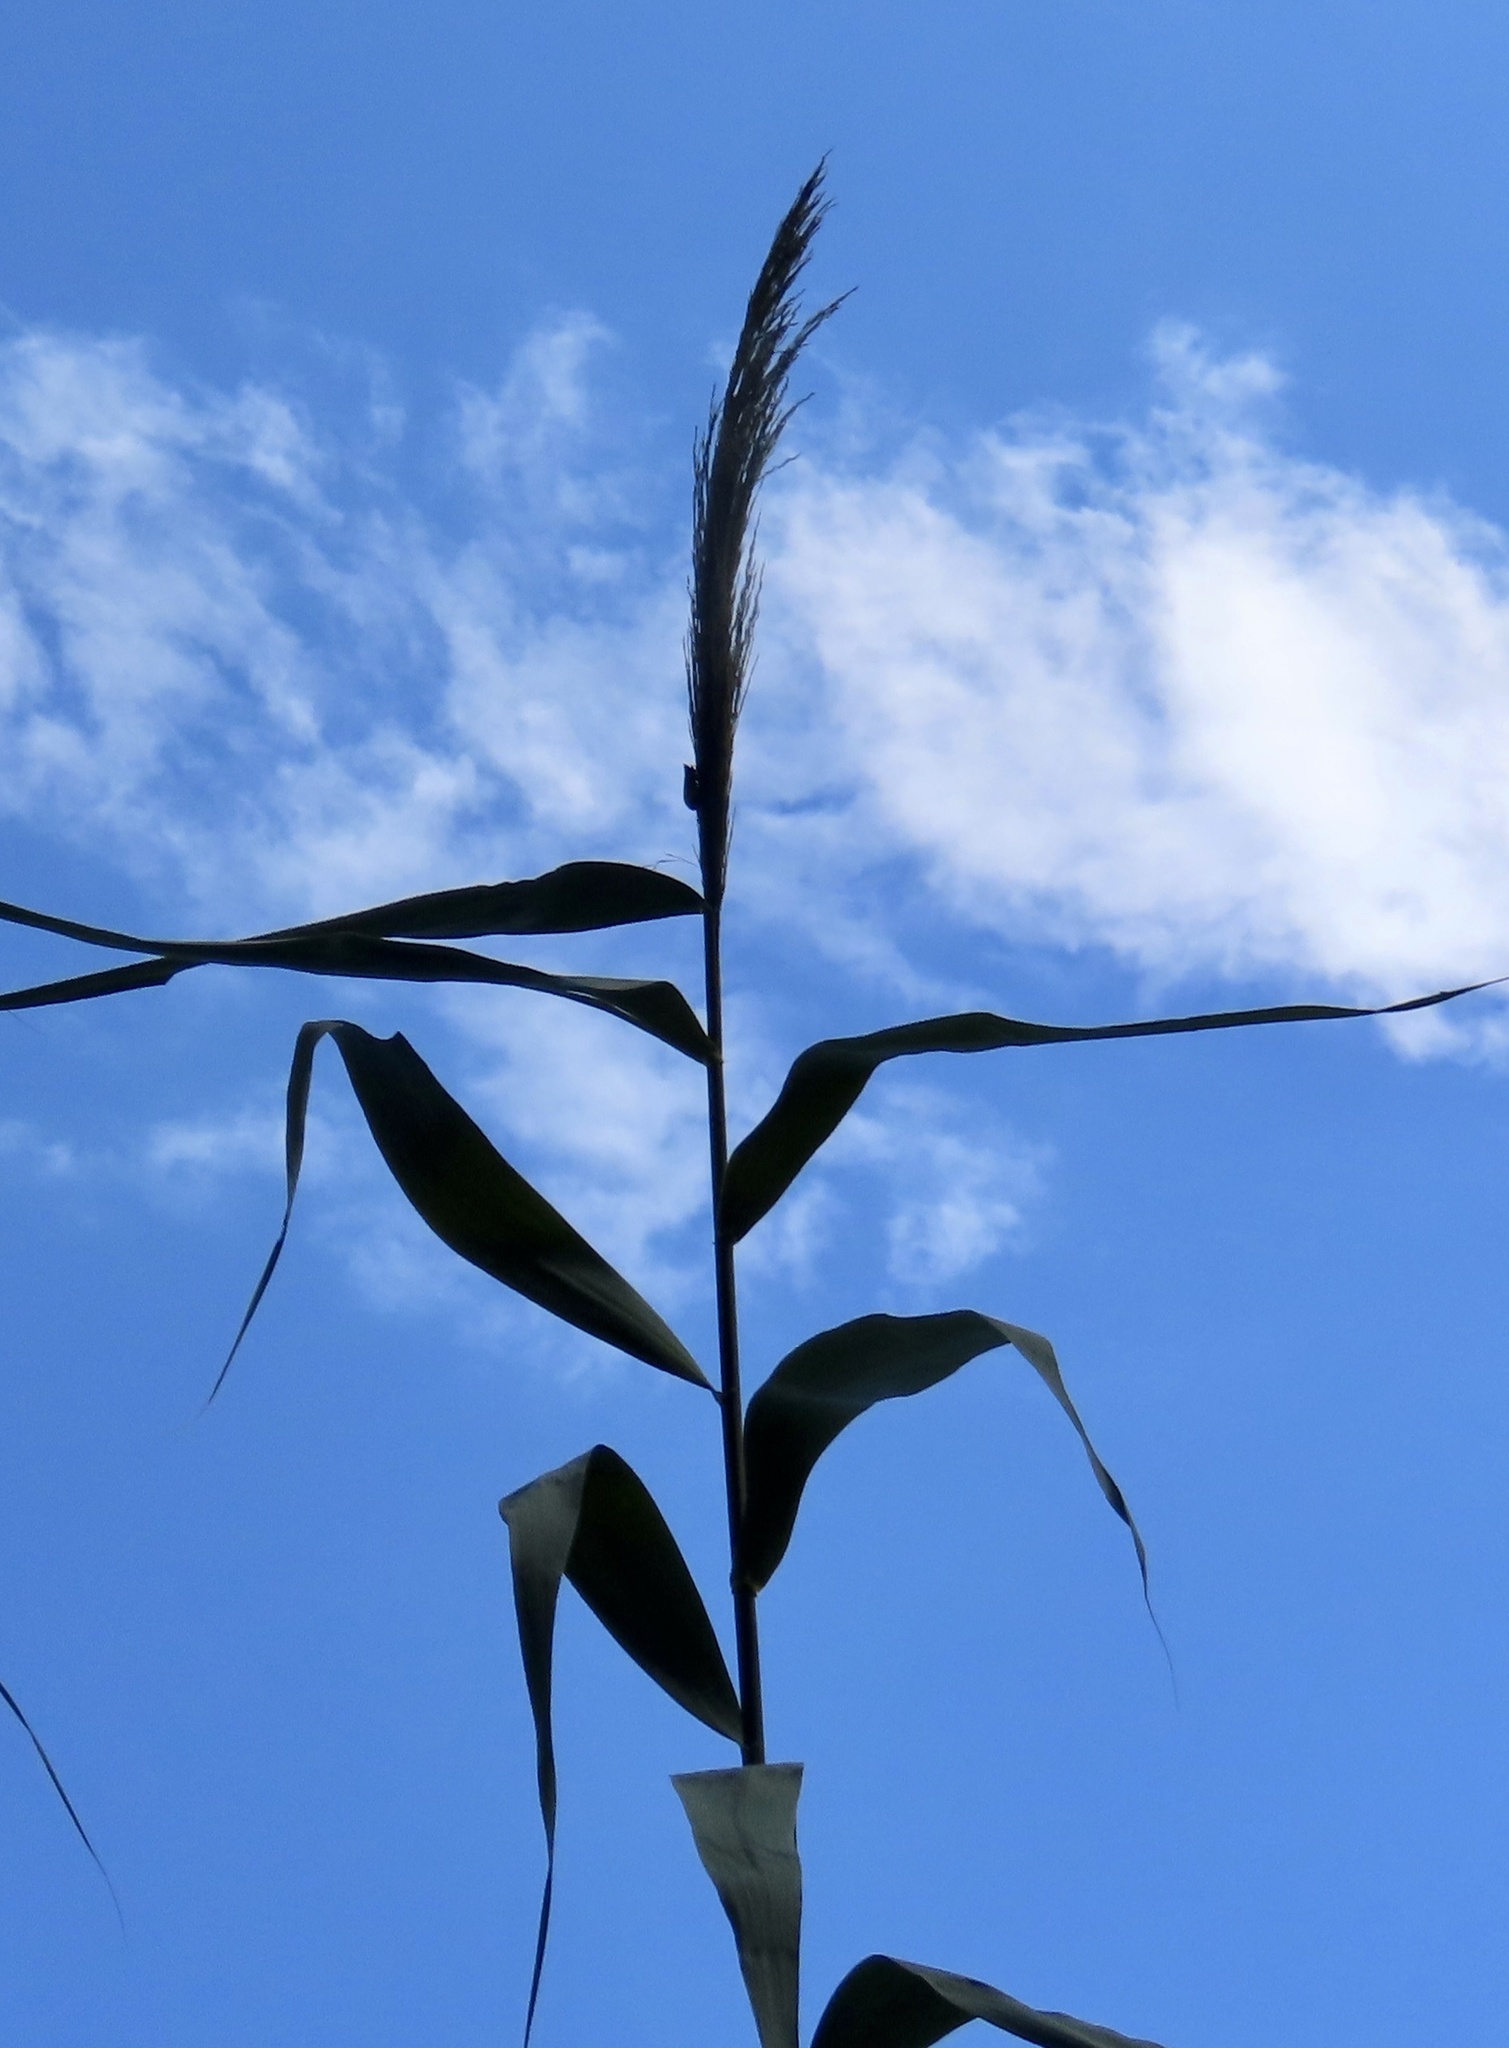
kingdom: Animalia
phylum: Arthropoda
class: Insecta
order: Hemiptera
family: Fulgoridae
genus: Lycorma
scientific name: Lycorma delicatula
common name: Spotted lanternfly
